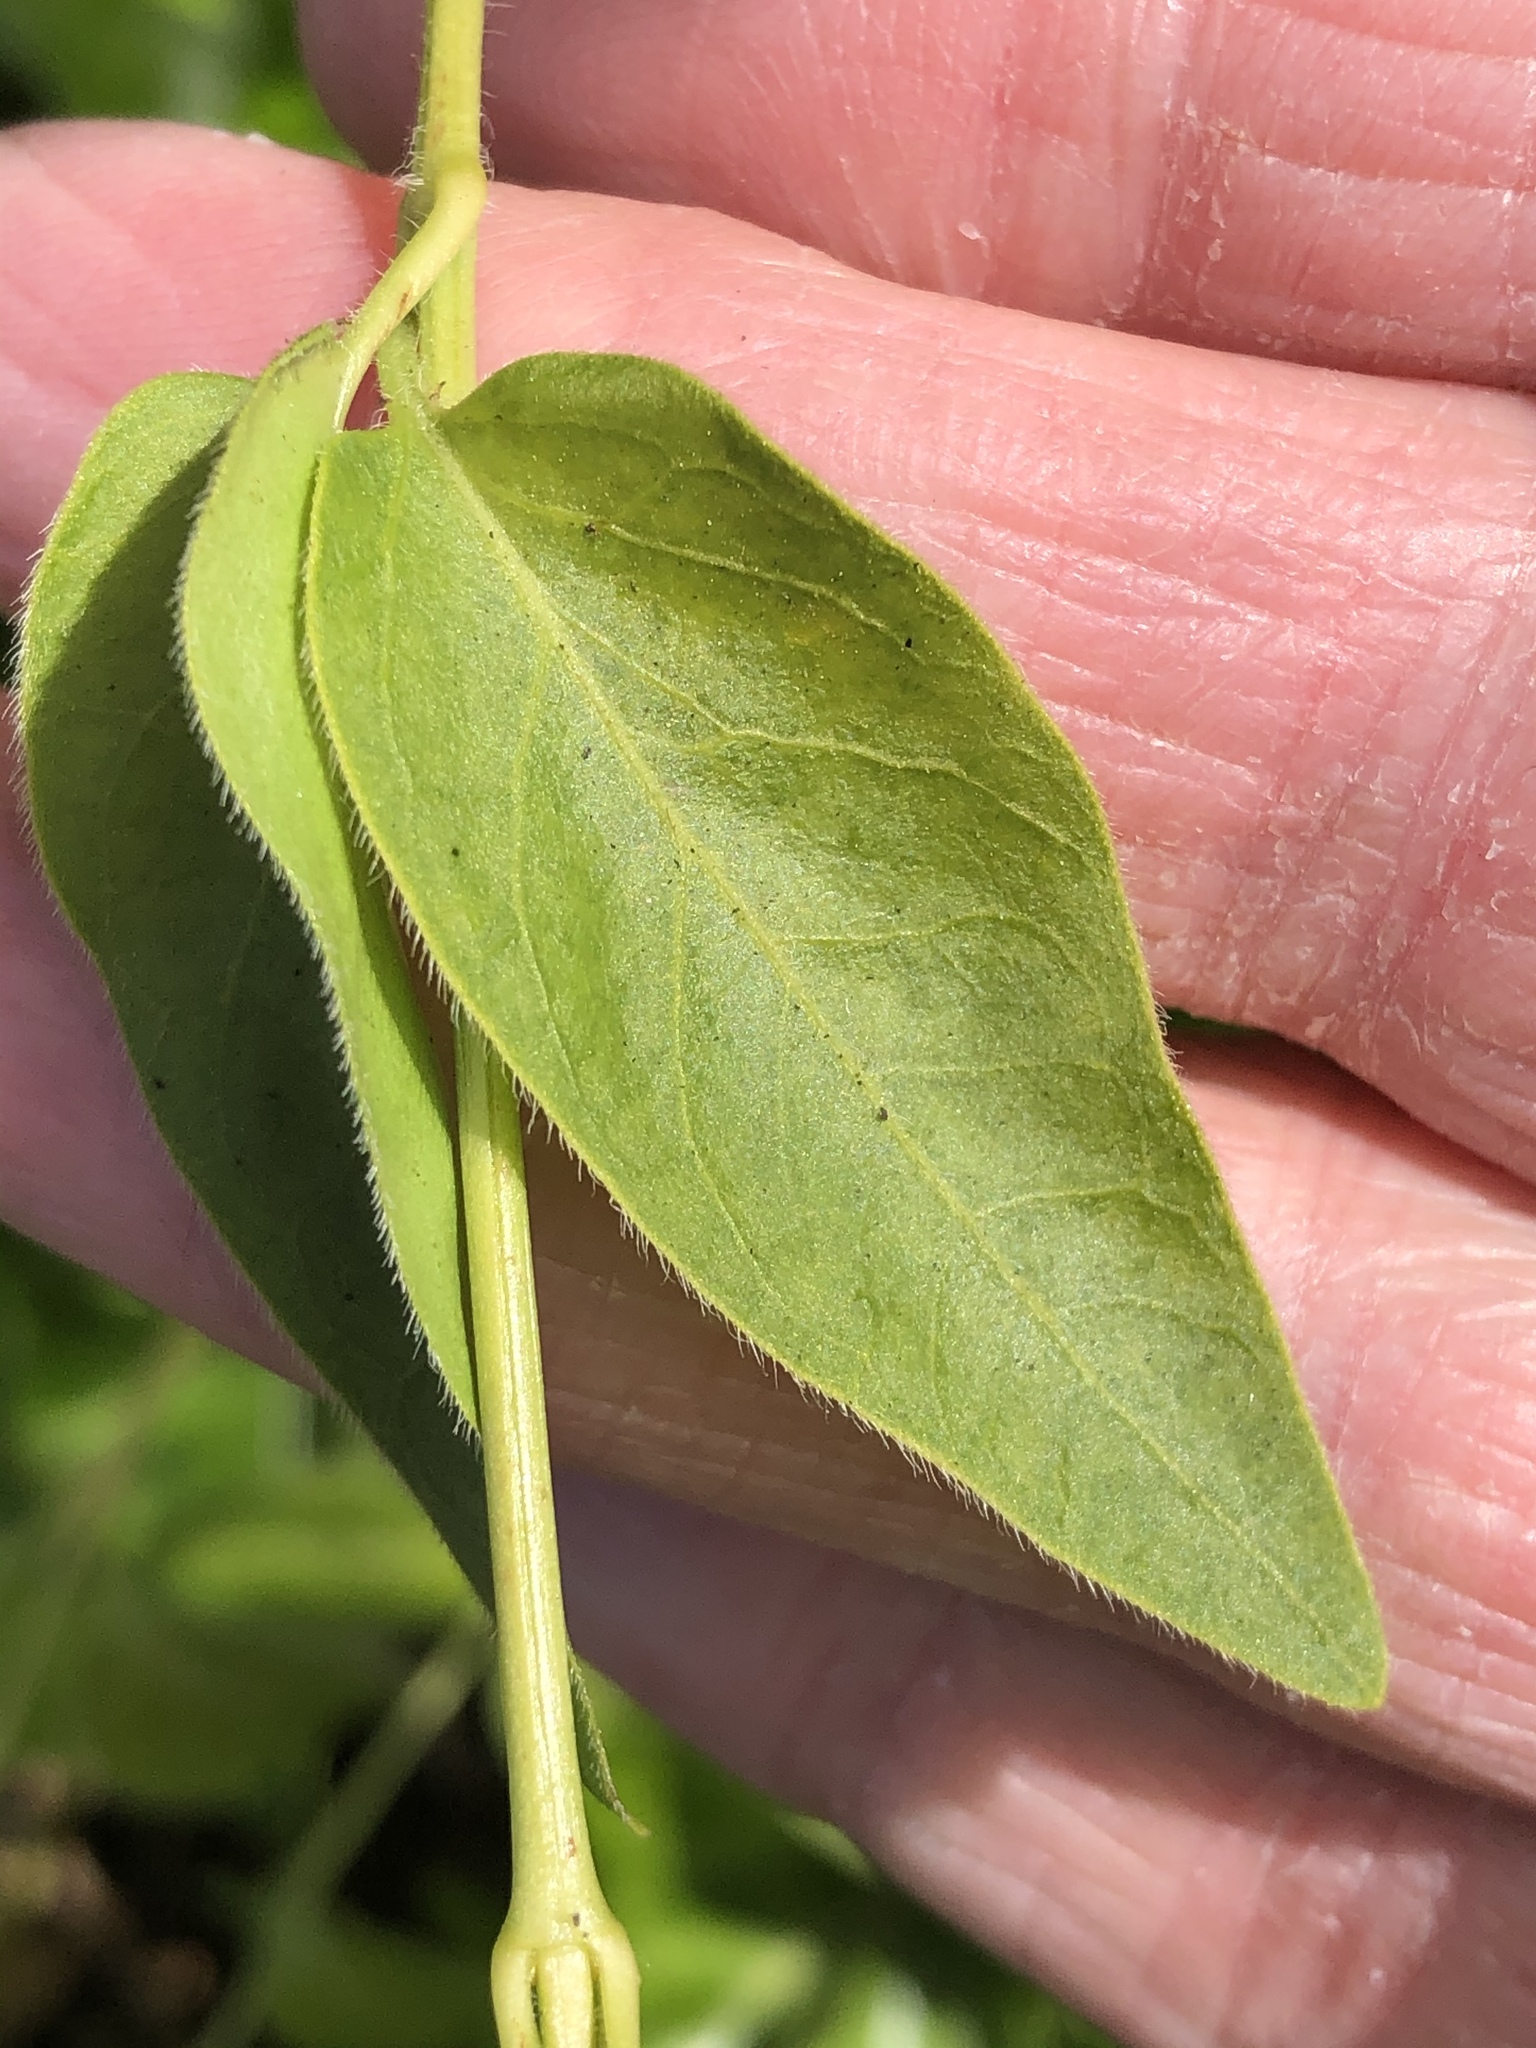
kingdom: Plantae
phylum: Tracheophyta
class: Magnoliopsida
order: Gentianales
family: Apocynaceae
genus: Vinca
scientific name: Vinca major
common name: Greater periwinkle
